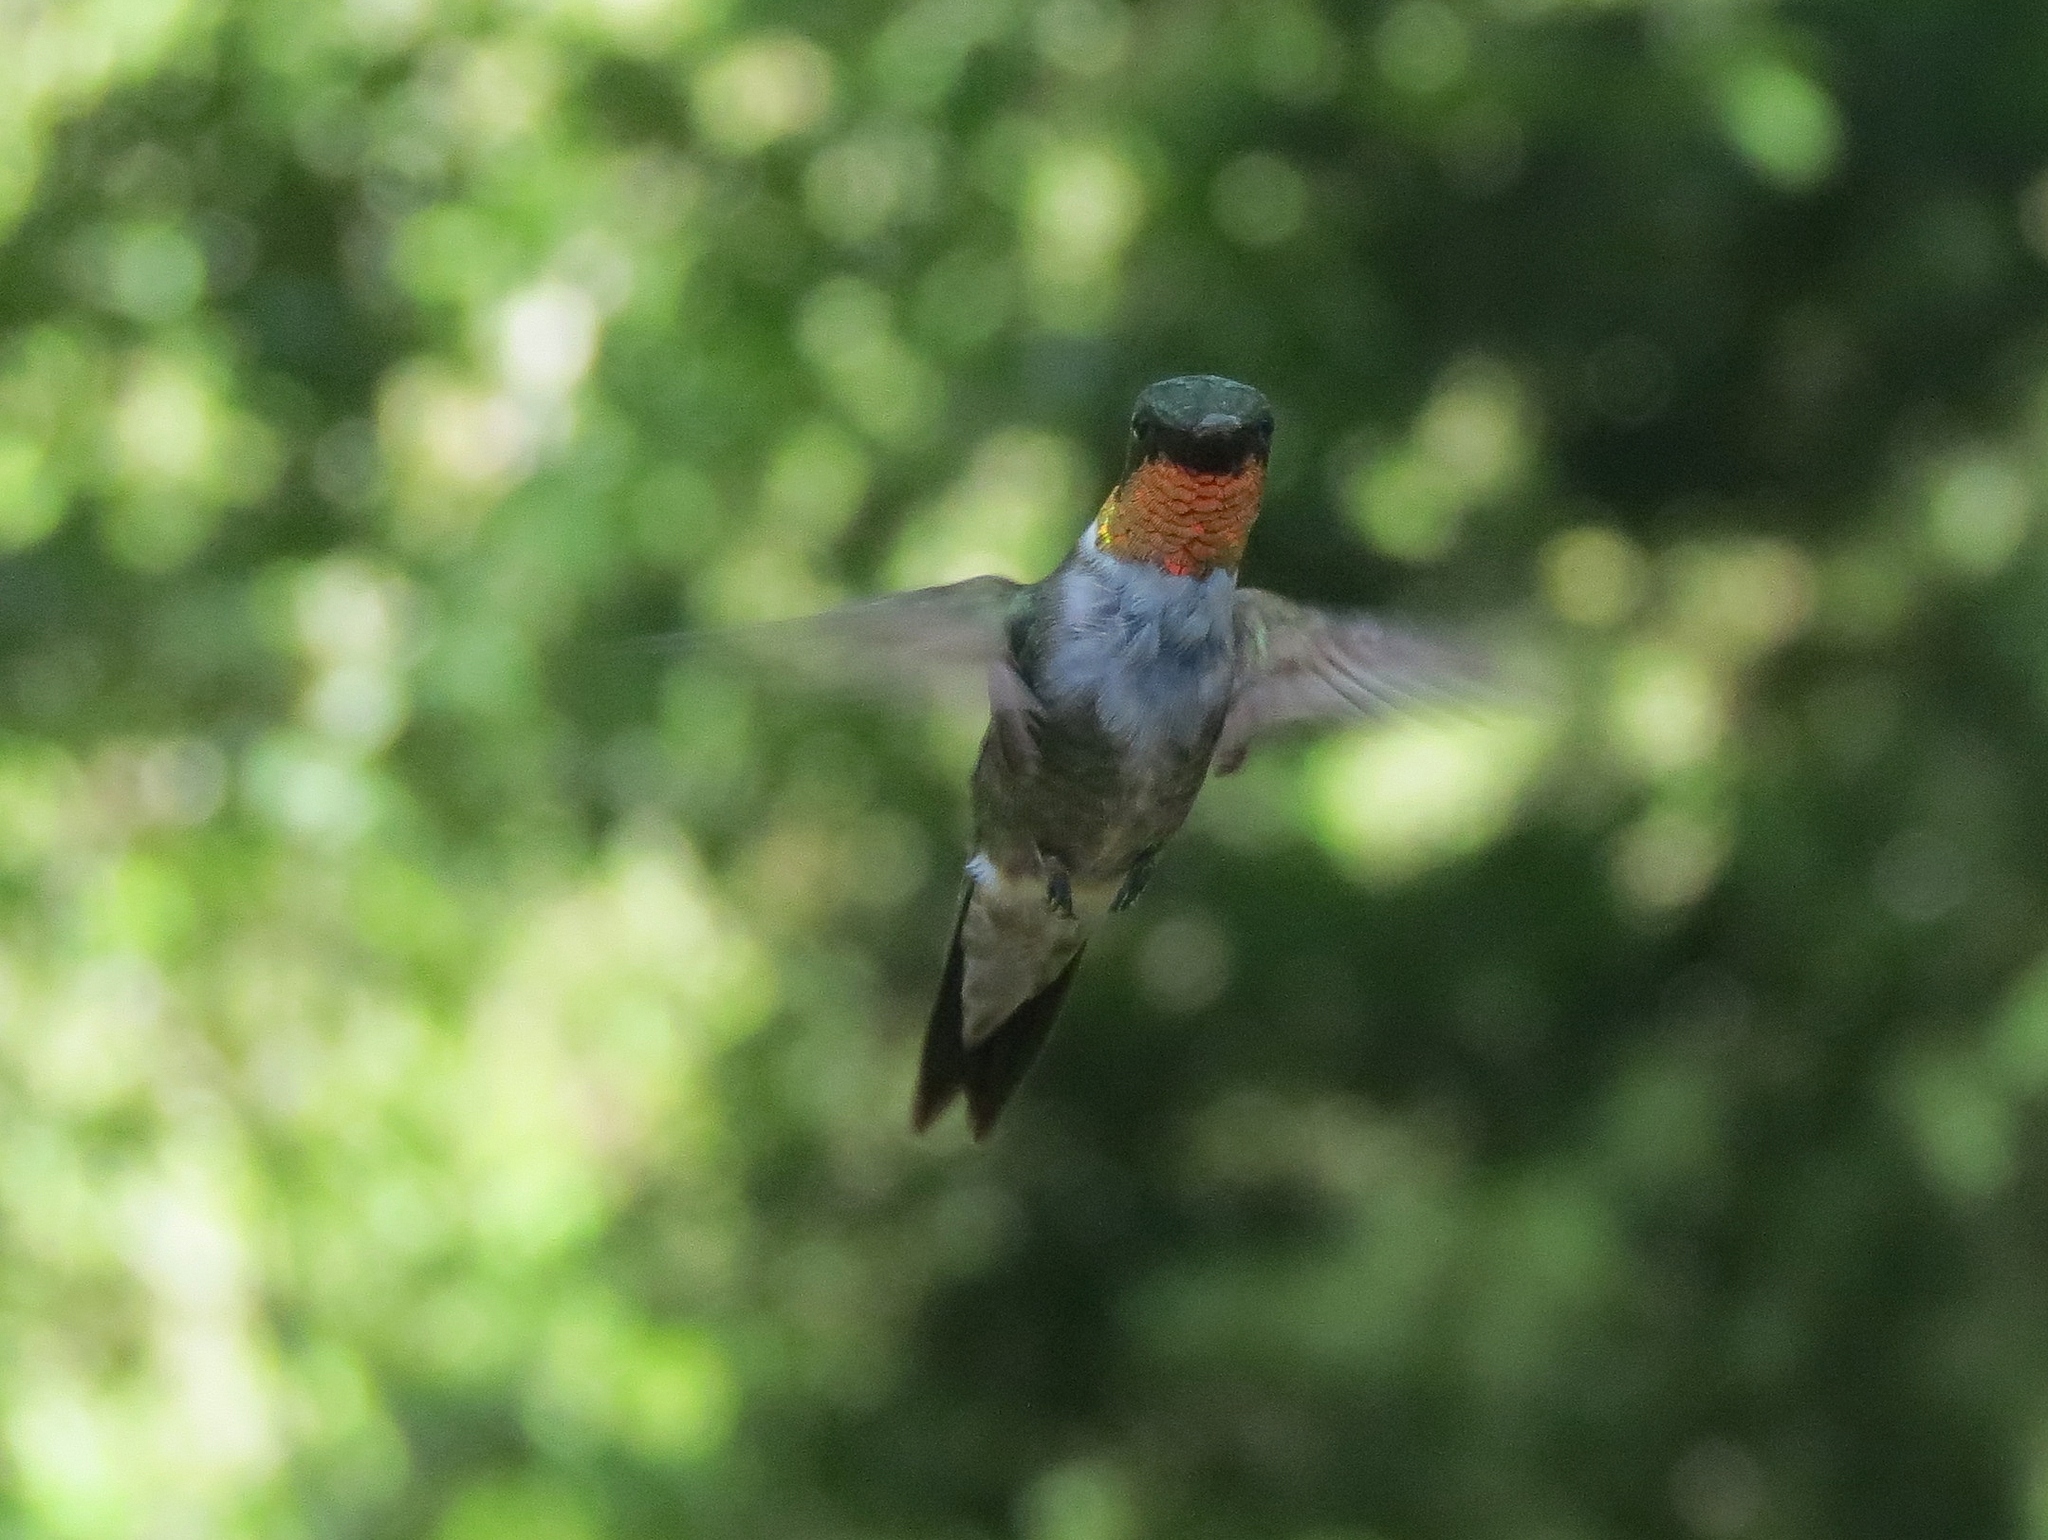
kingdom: Animalia
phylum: Chordata
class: Aves
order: Apodiformes
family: Trochilidae
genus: Archilochus
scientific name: Archilochus colubris
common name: Ruby-throated hummingbird
